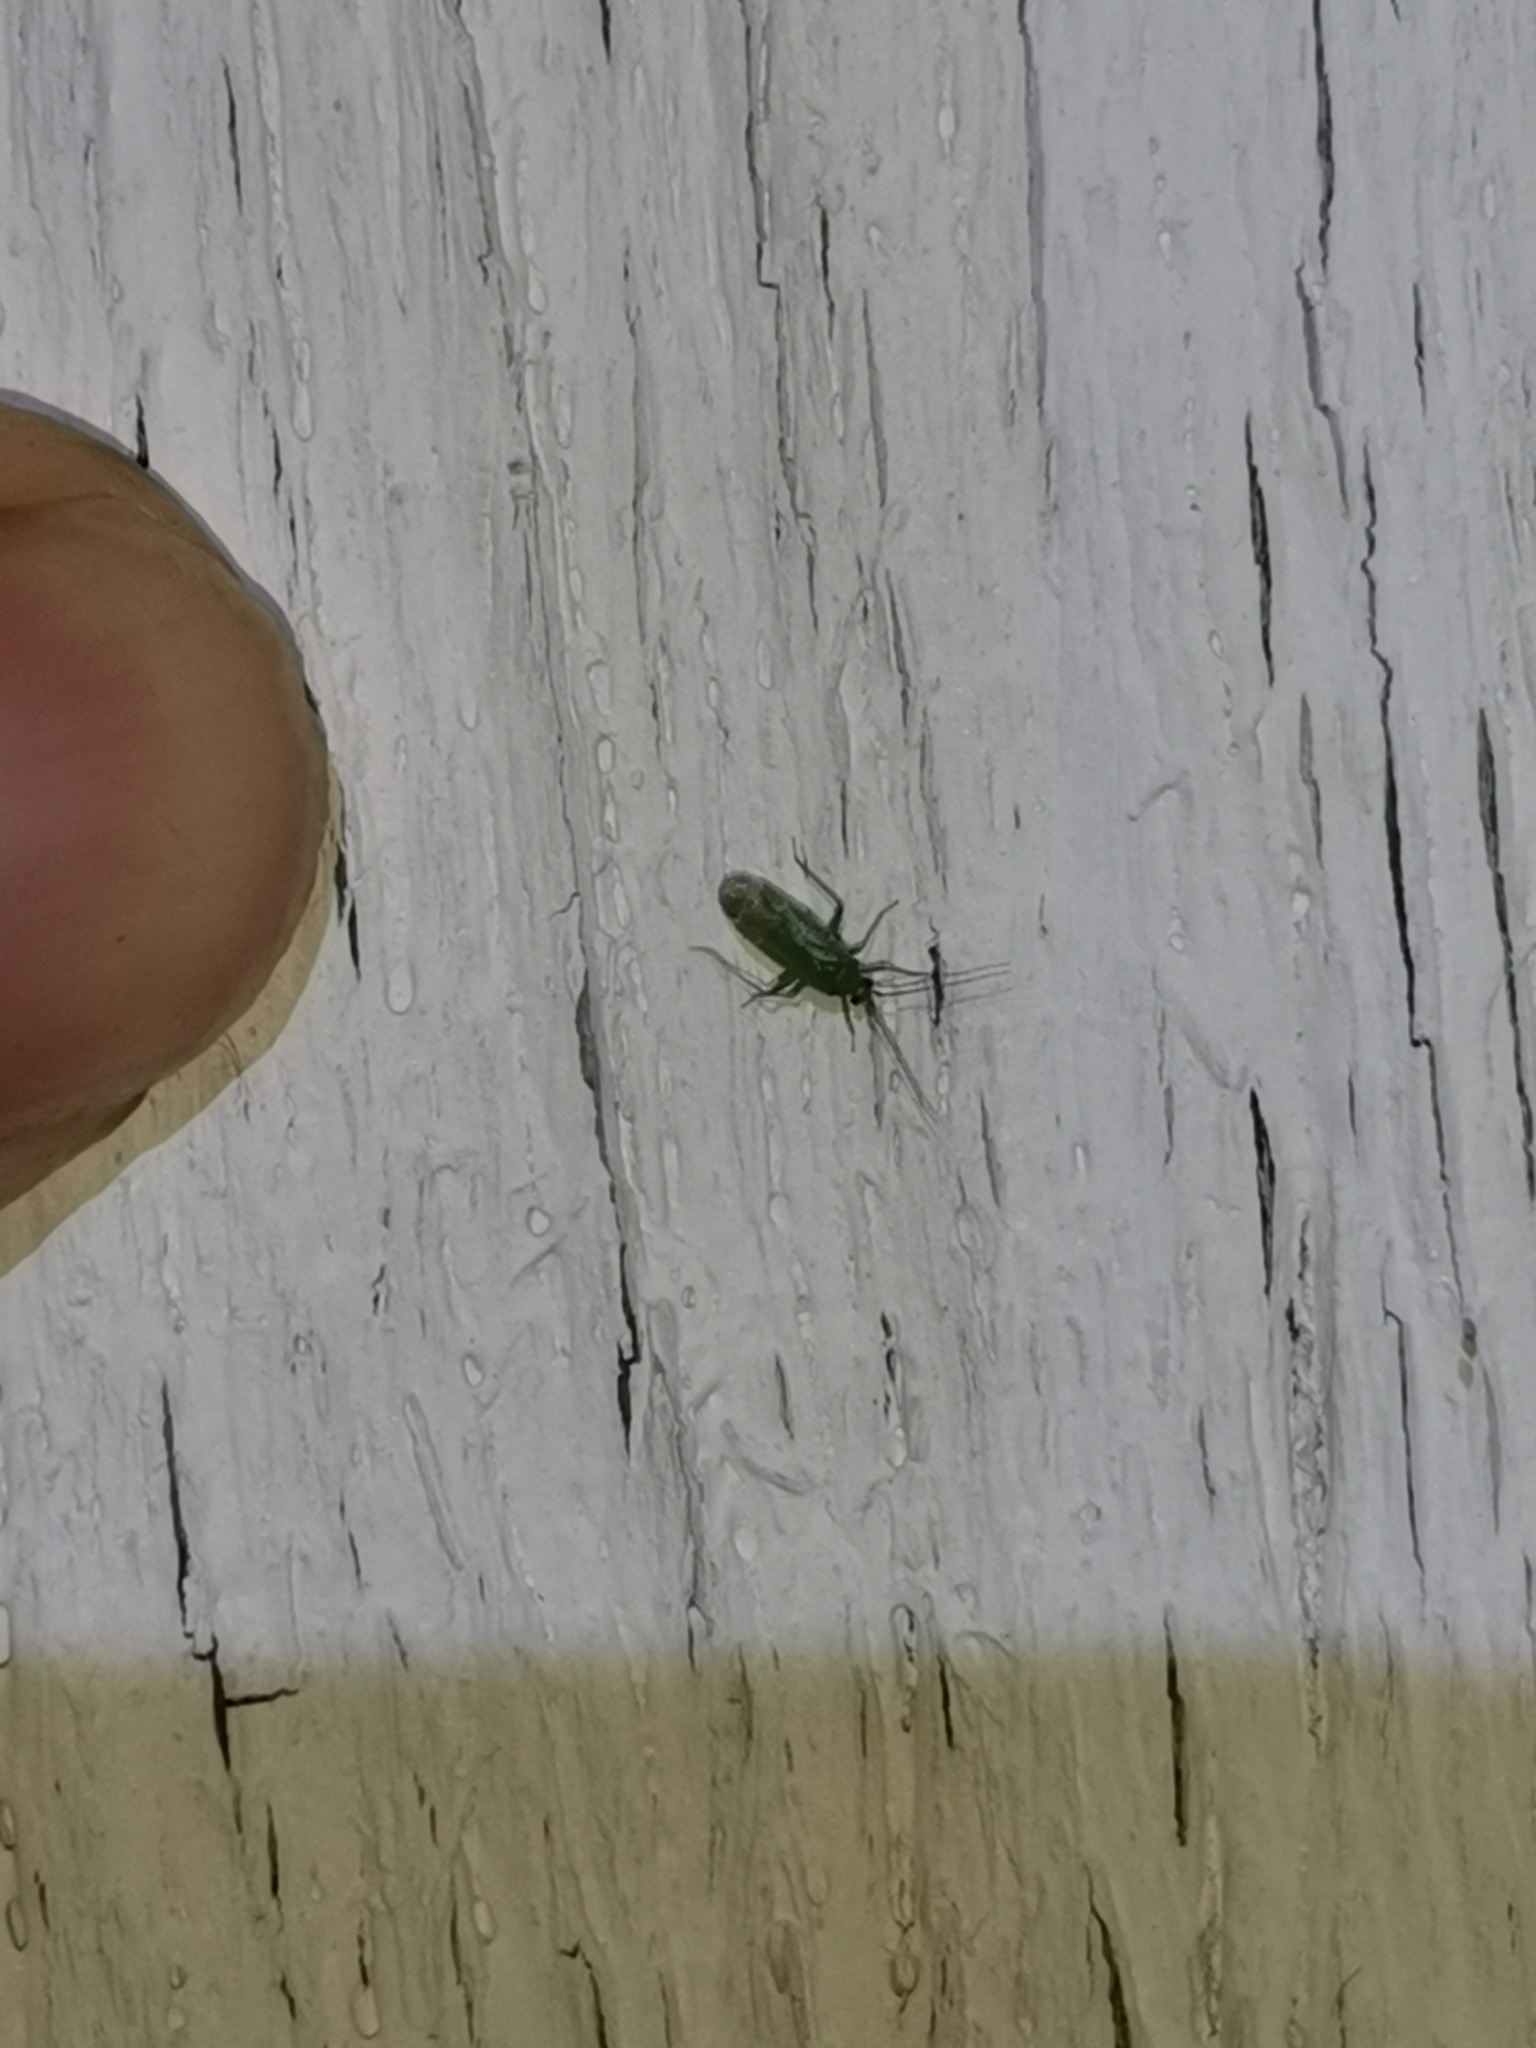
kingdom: Animalia
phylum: Arthropoda
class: Insecta
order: Hemiptera
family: Miridae
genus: Orthotylus
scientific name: Orthotylus flavosparsus
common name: Plant bug
